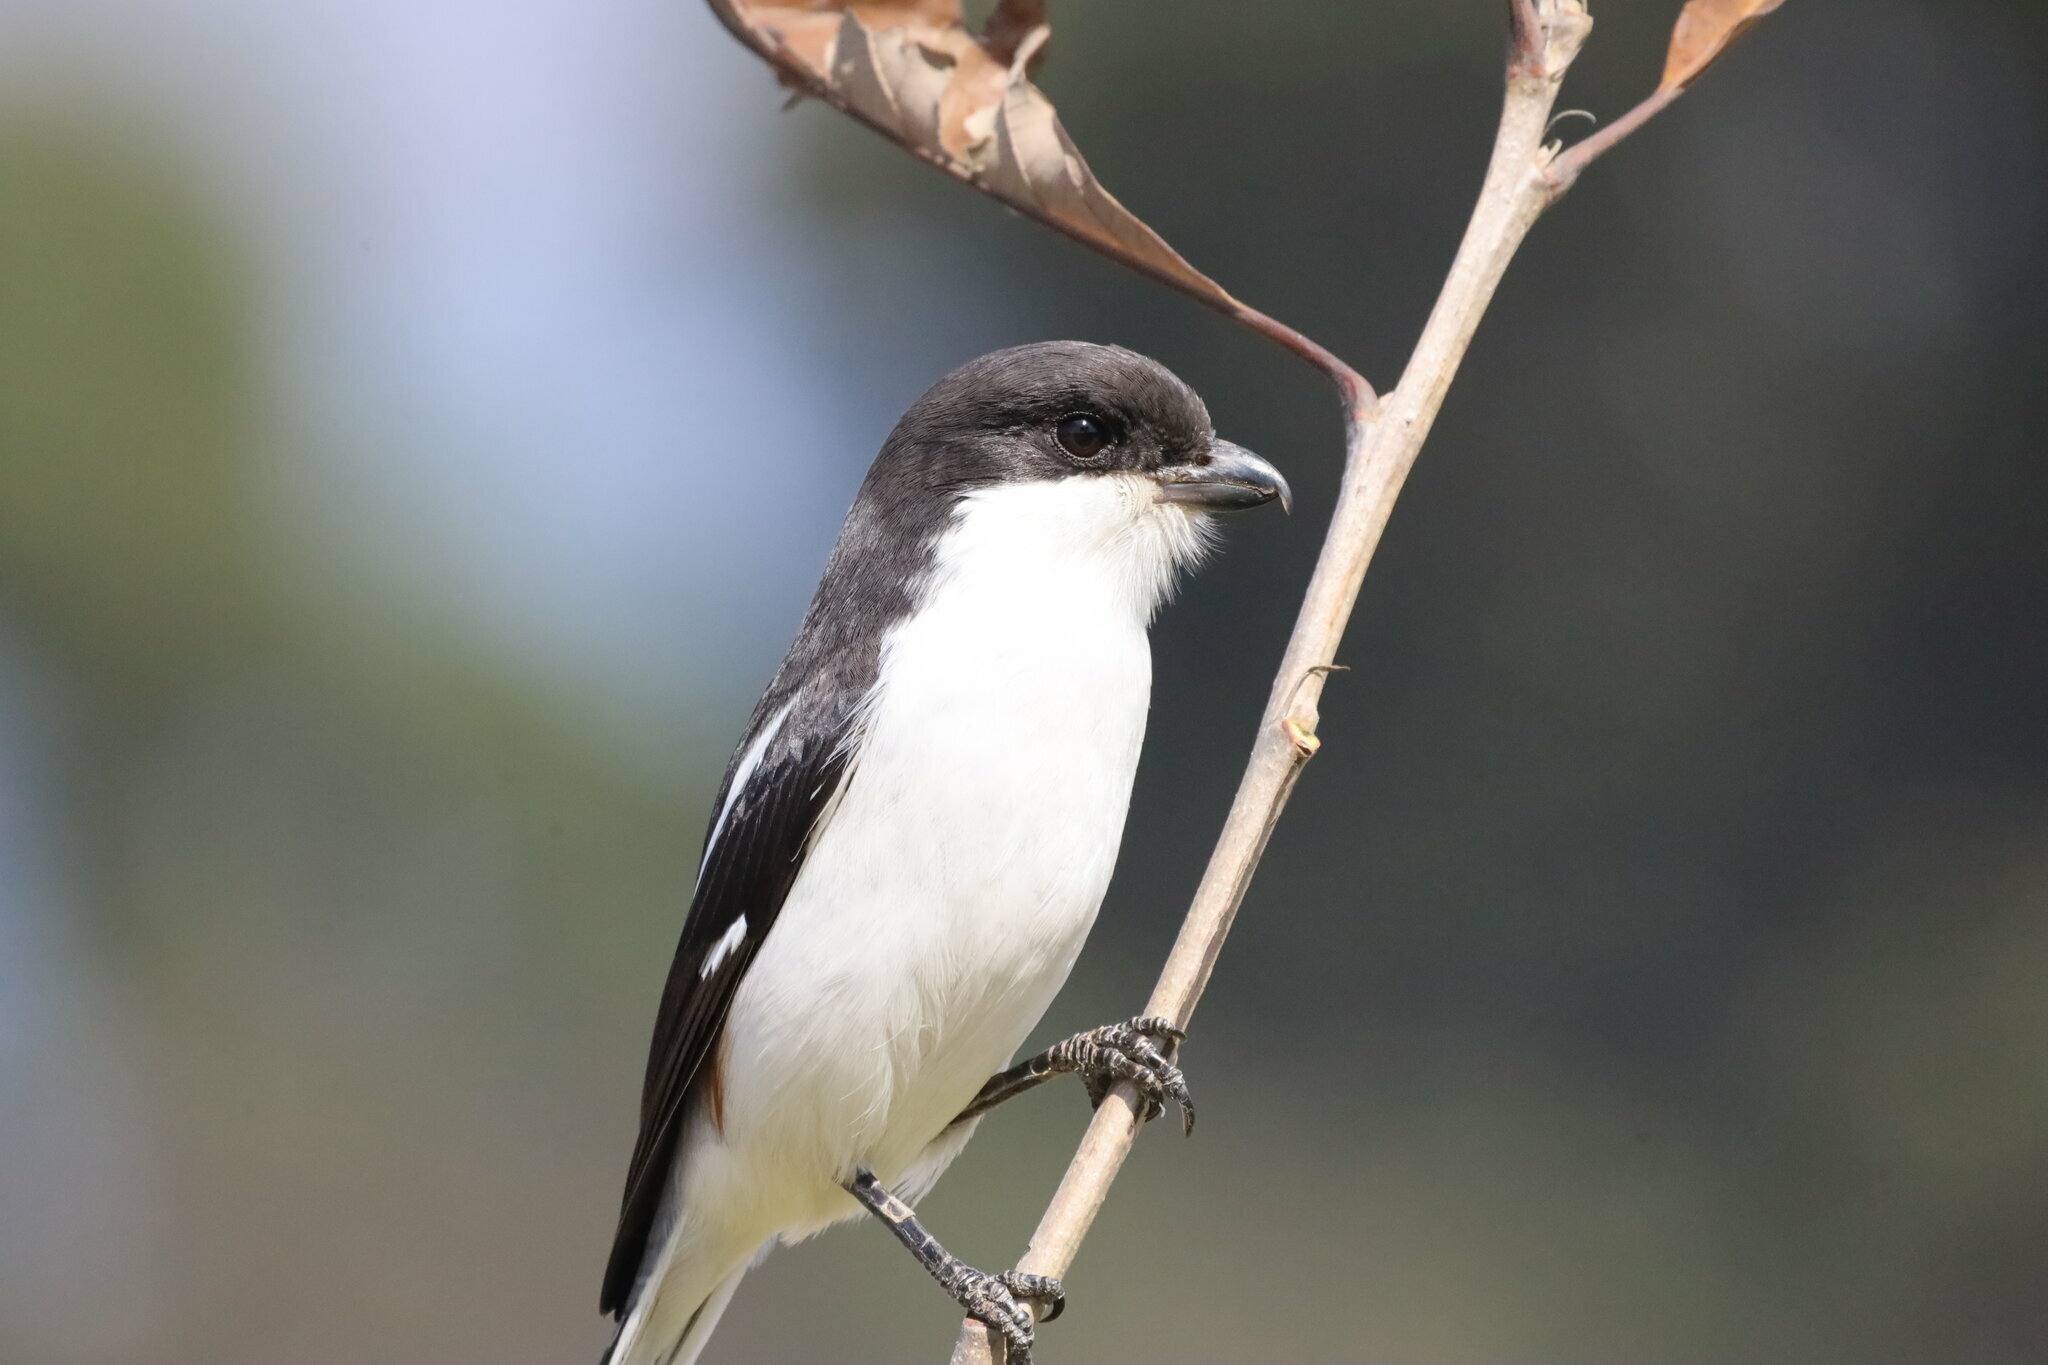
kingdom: Animalia
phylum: Chordata
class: Aves
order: Passeriformes
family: Laniidae
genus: Lanius
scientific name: Lanius collaris
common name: Southern fiscal
